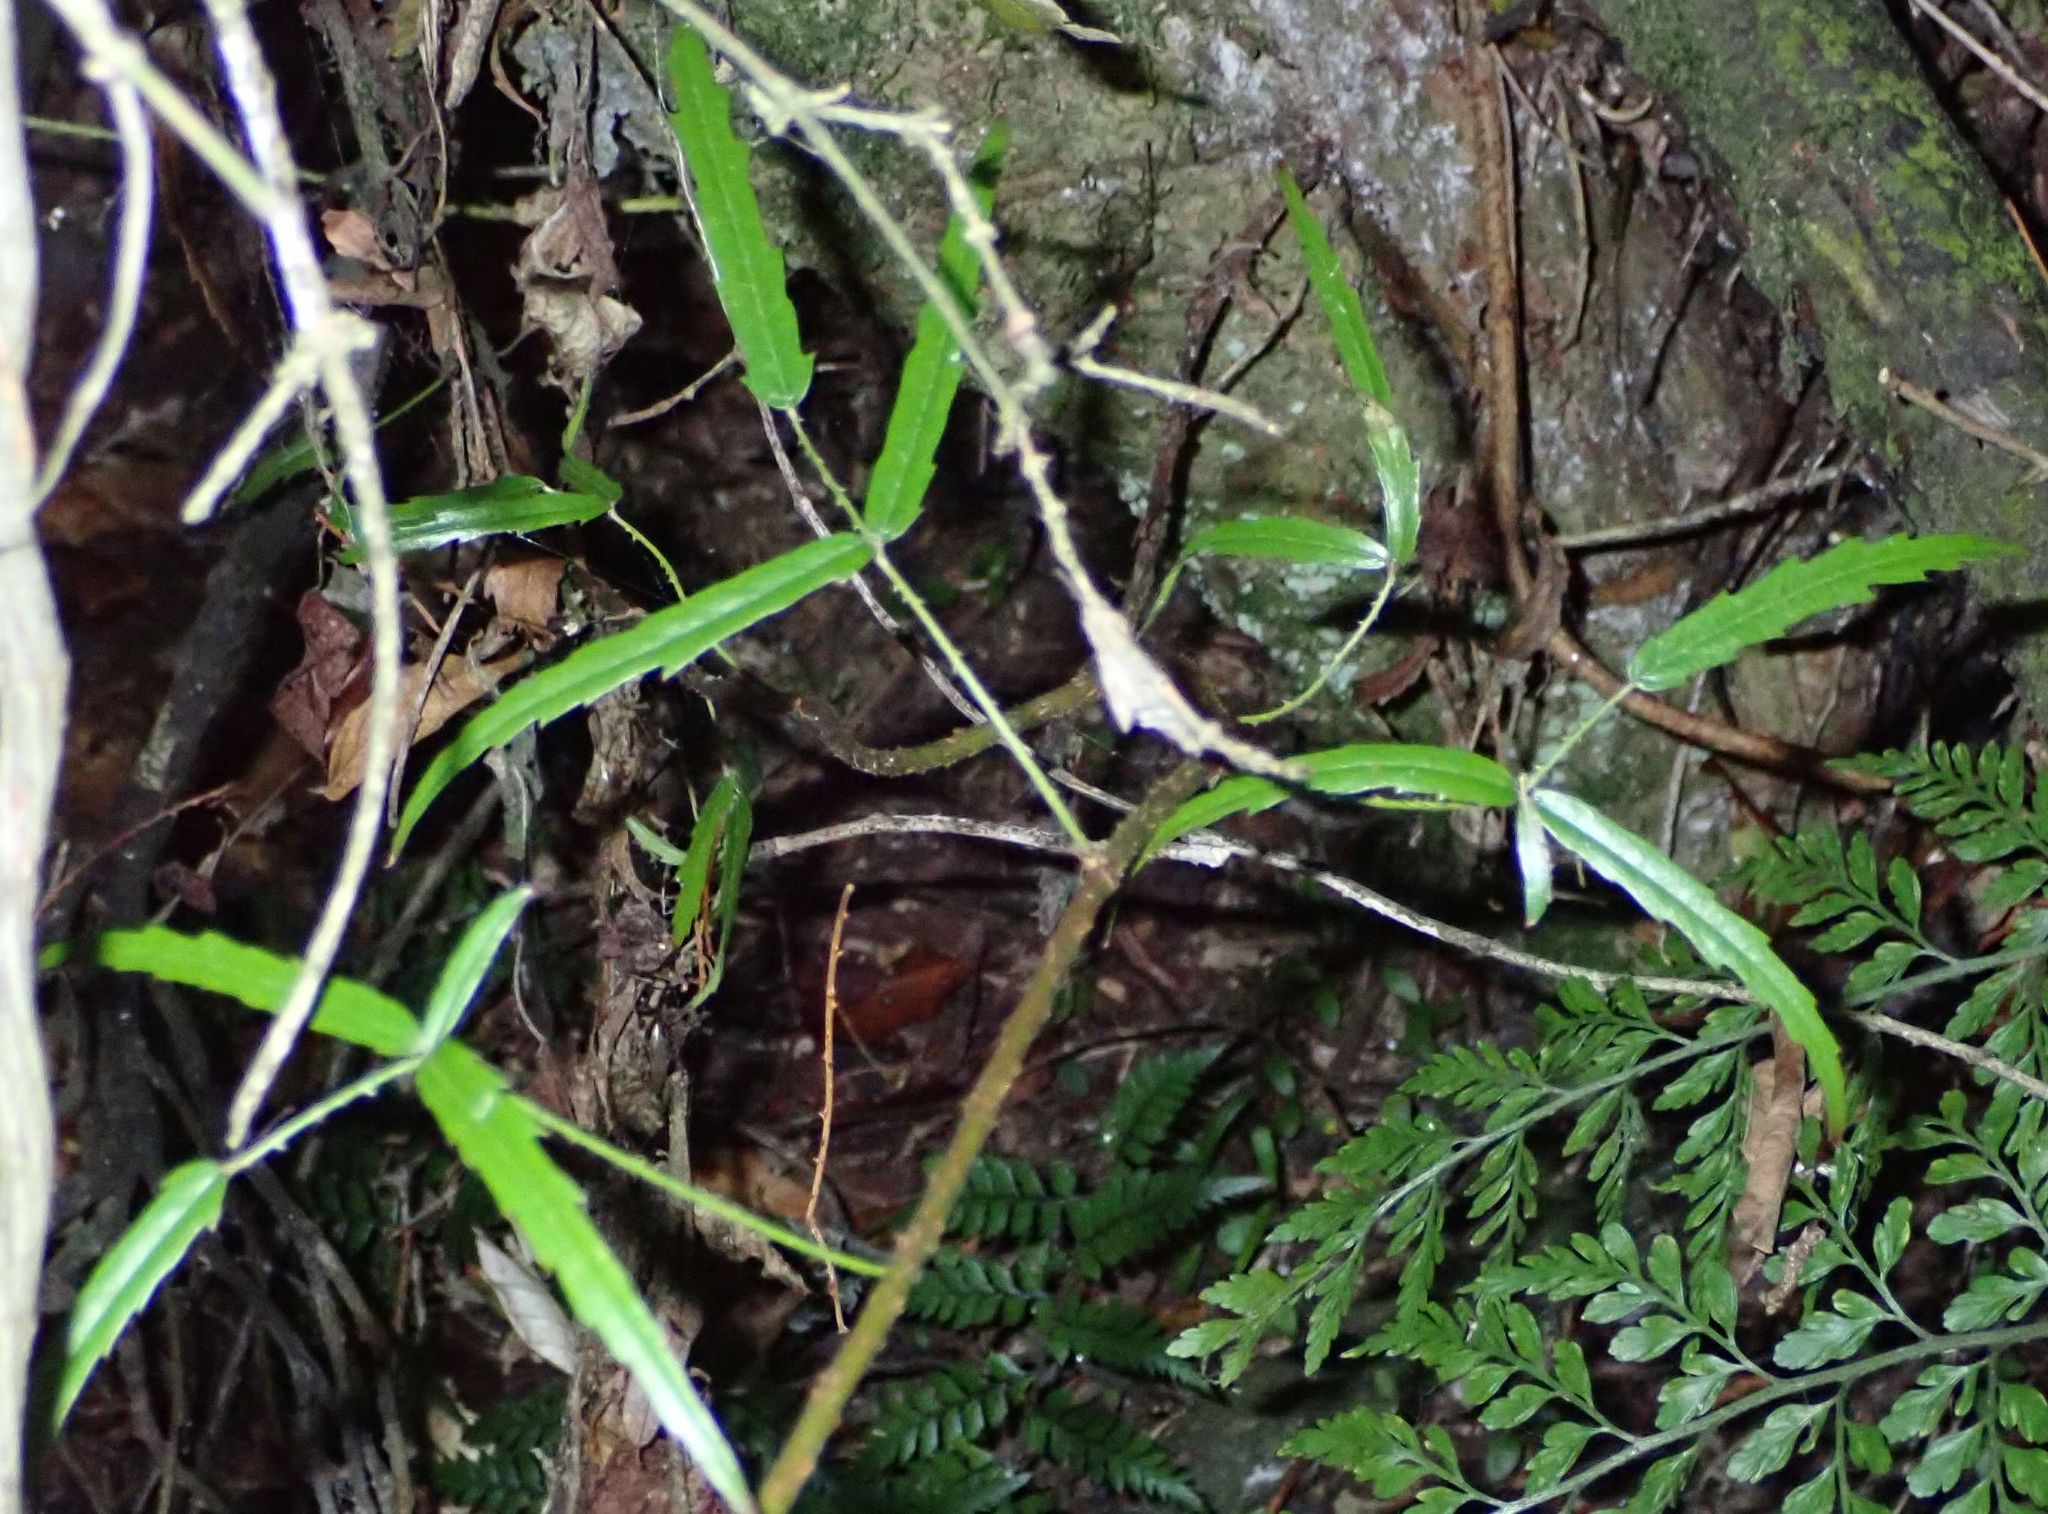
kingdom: Plantae
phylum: Tracheophyta
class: Magnoliopsida
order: Rosales
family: Rosaceae
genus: Rubus
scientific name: Rubus schmidelioides
